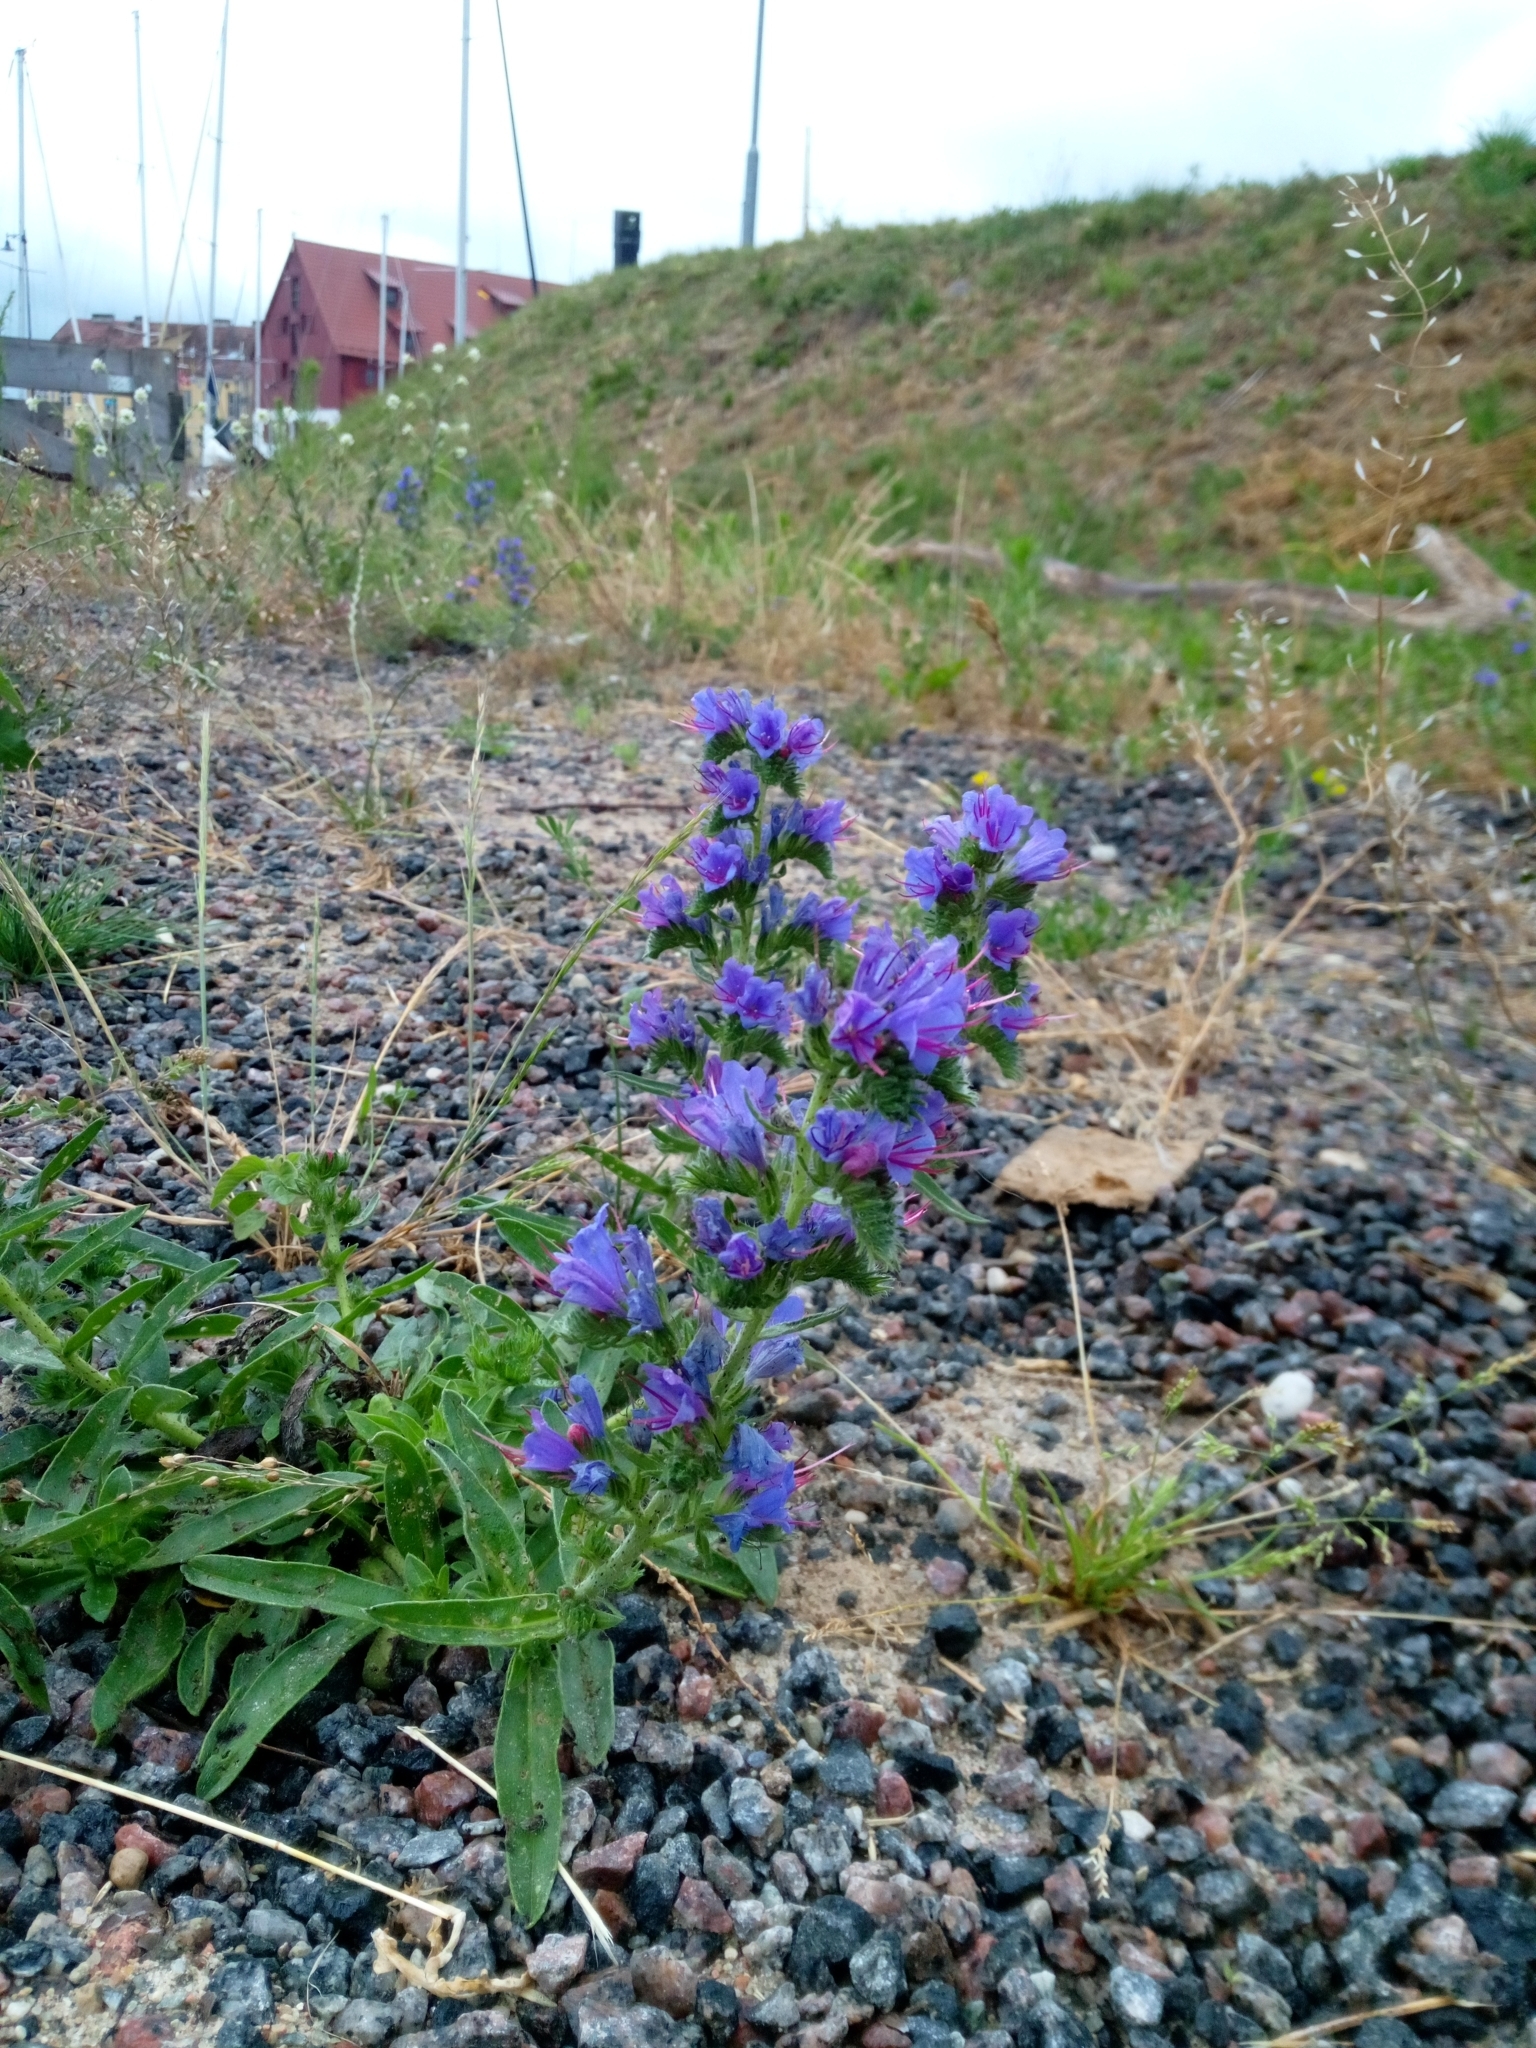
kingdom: Plantae
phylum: Tracheophyta
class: Magnoliopsida
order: Boraginales
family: Boraginaceae
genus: Echium
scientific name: Echium vulgare
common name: Common viper's bugloss
